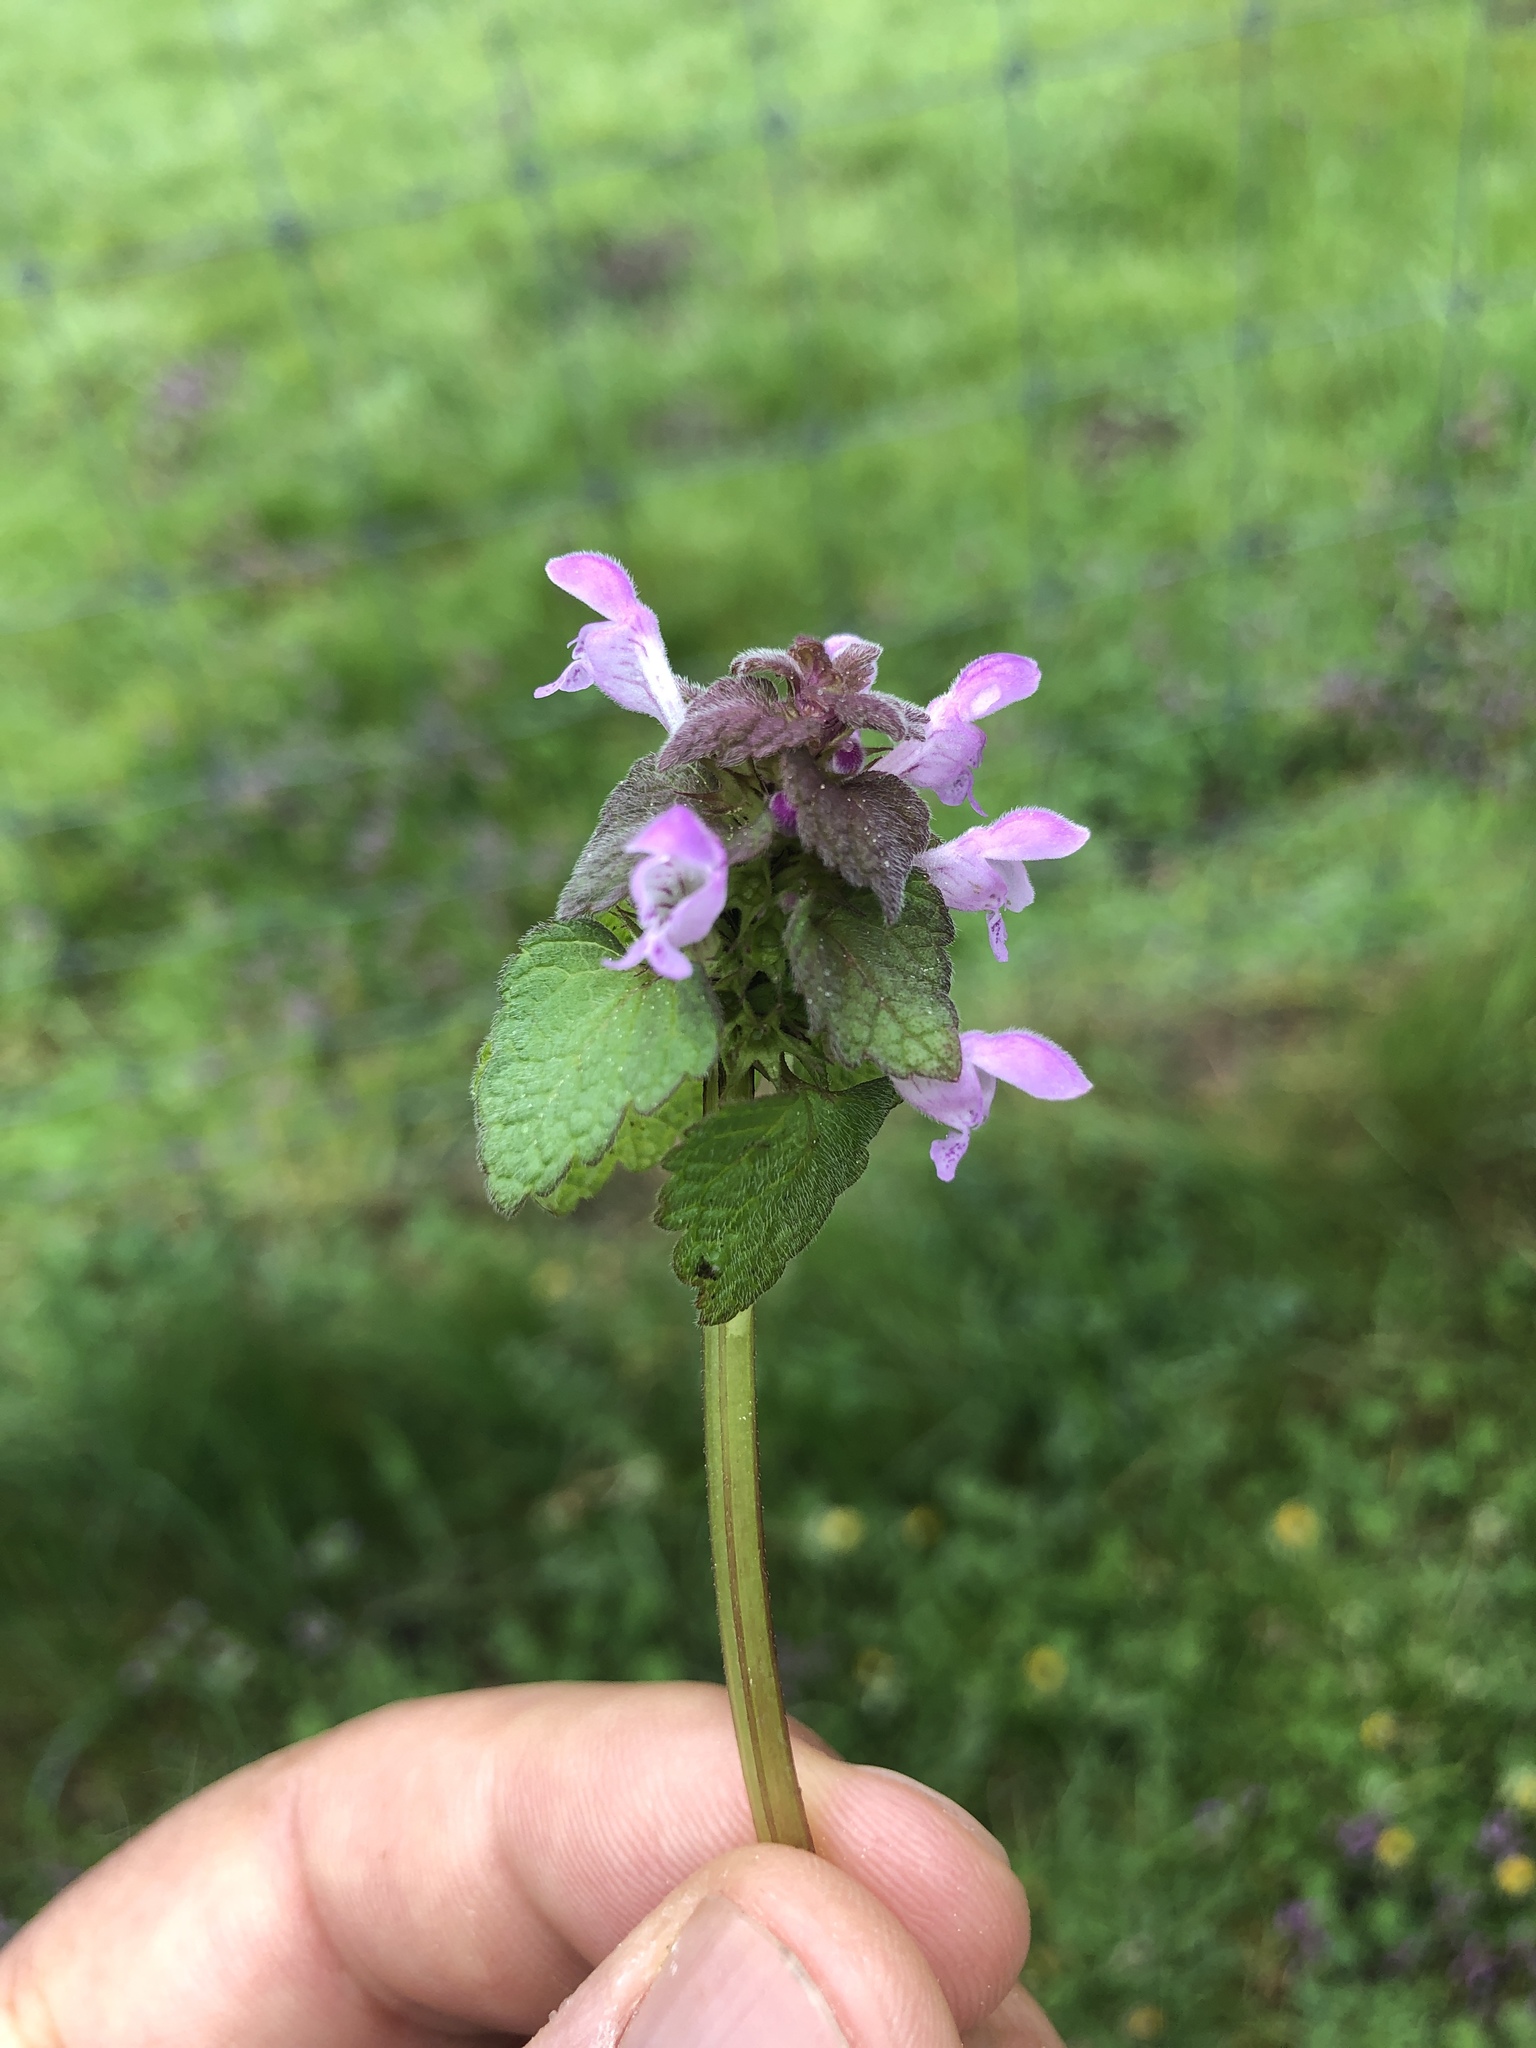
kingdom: Plantae
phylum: Tracheophyta
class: Magnoliopsida
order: Lamiales
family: Lamiaceae
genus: Lamium
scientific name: Lamium purpureum
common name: Red dead-nettle
